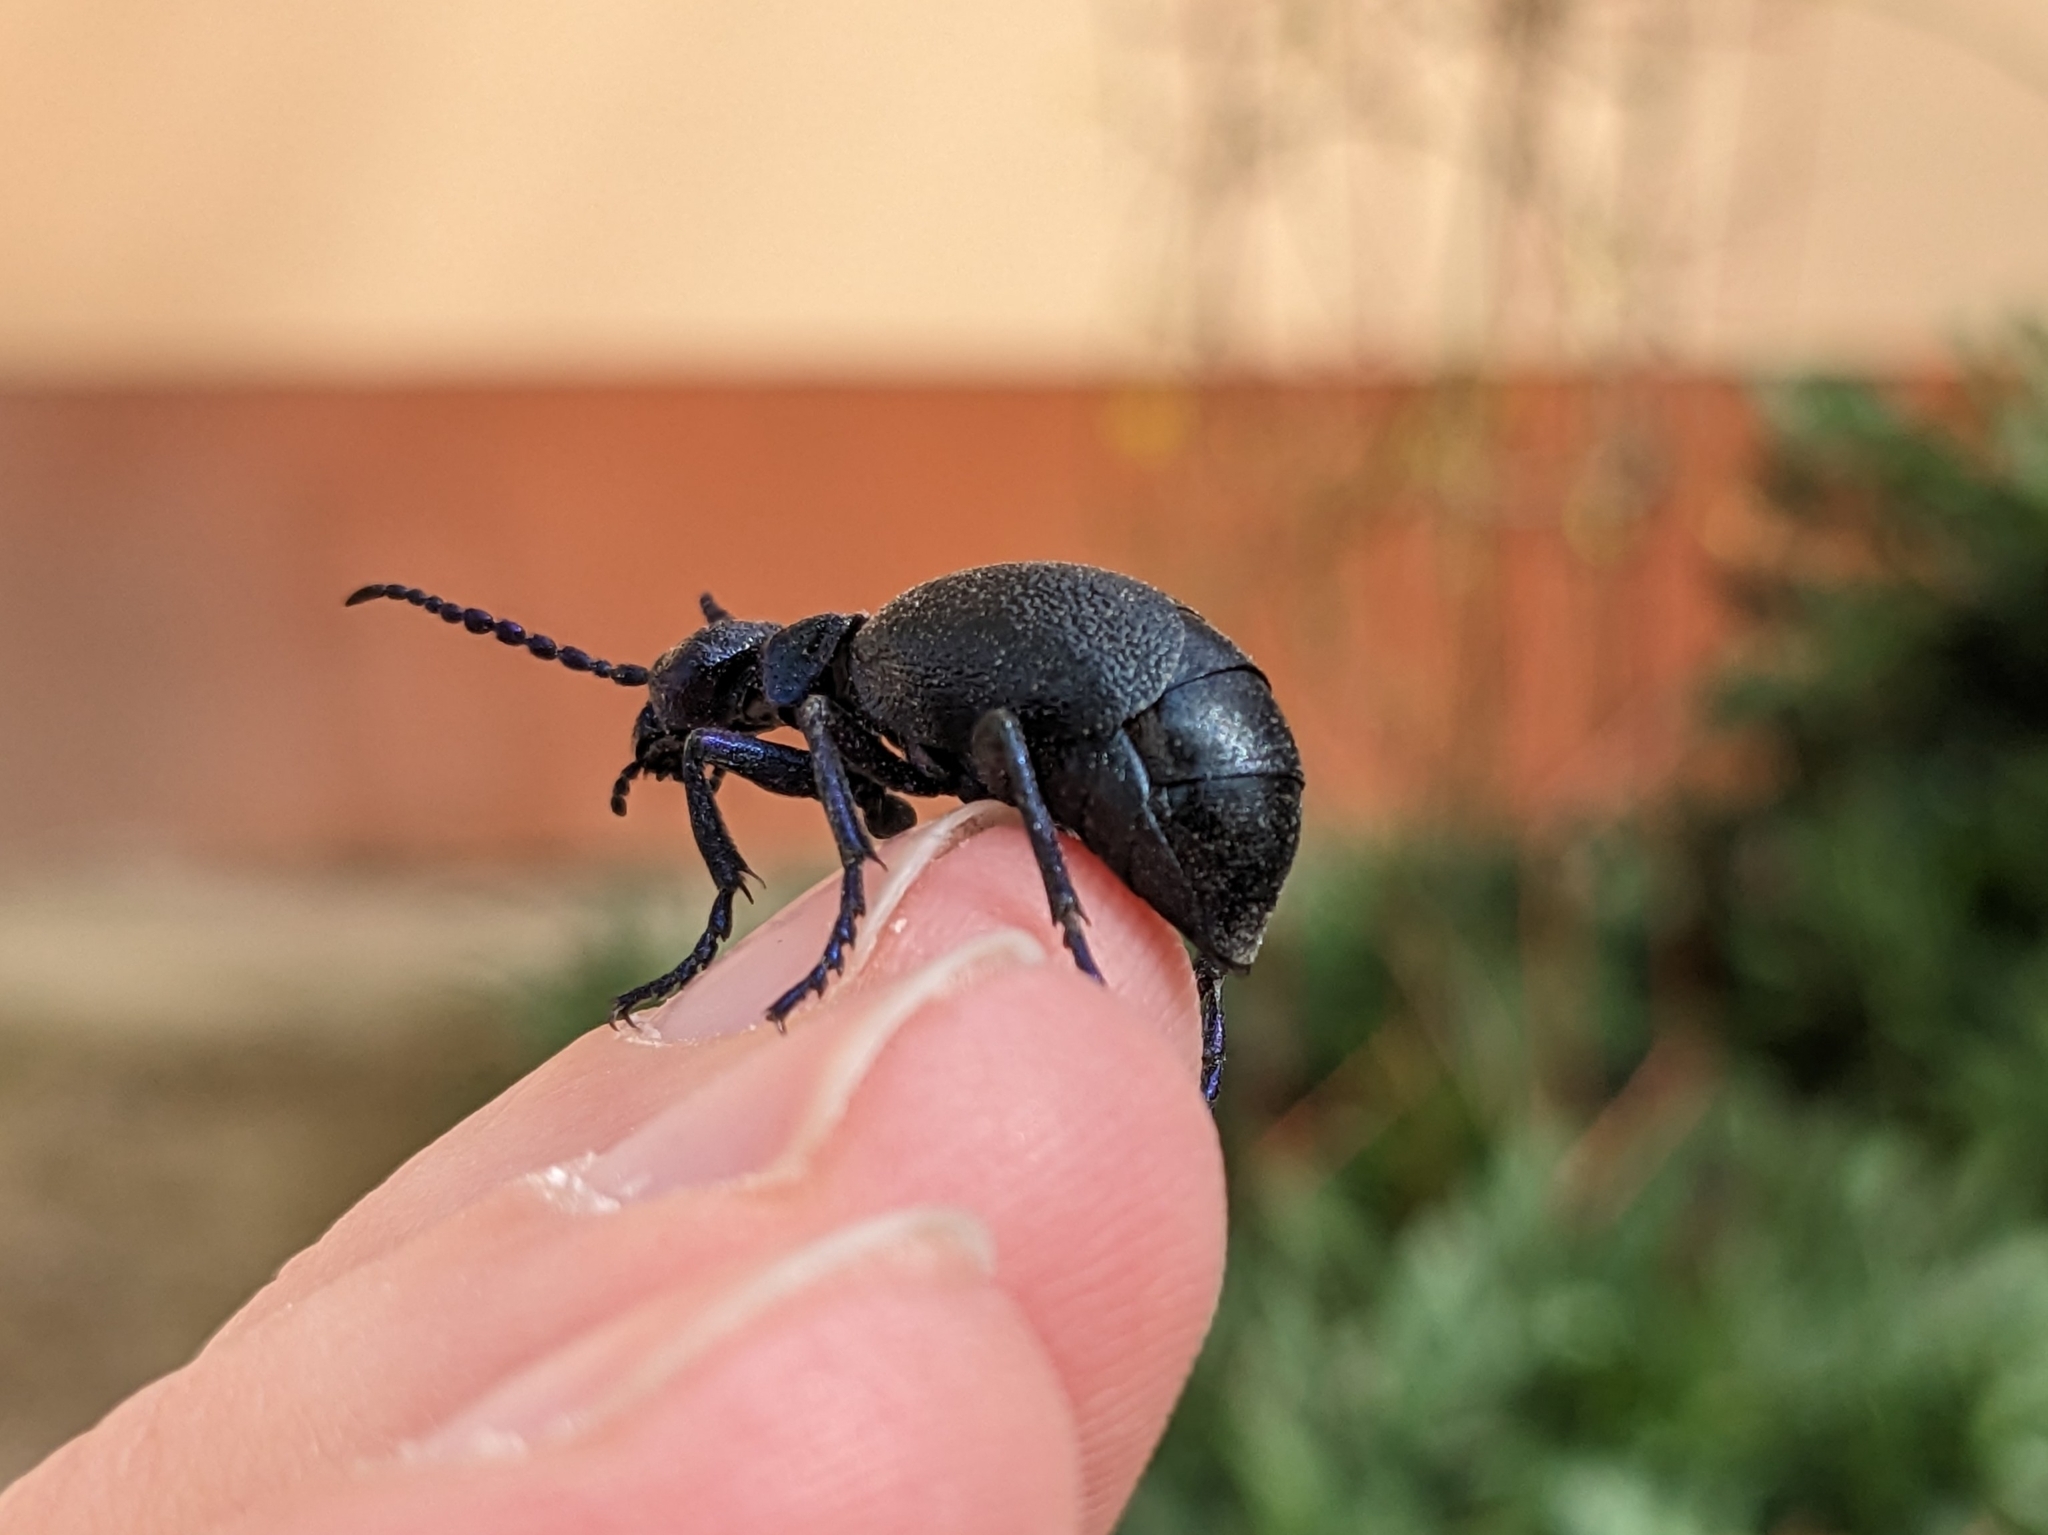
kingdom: Animalia
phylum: Arthropoda
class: Insecta
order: Coleoptera
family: Meloidae
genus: Meloe
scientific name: Meloe proscarabaeus
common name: Black oil-beetle
